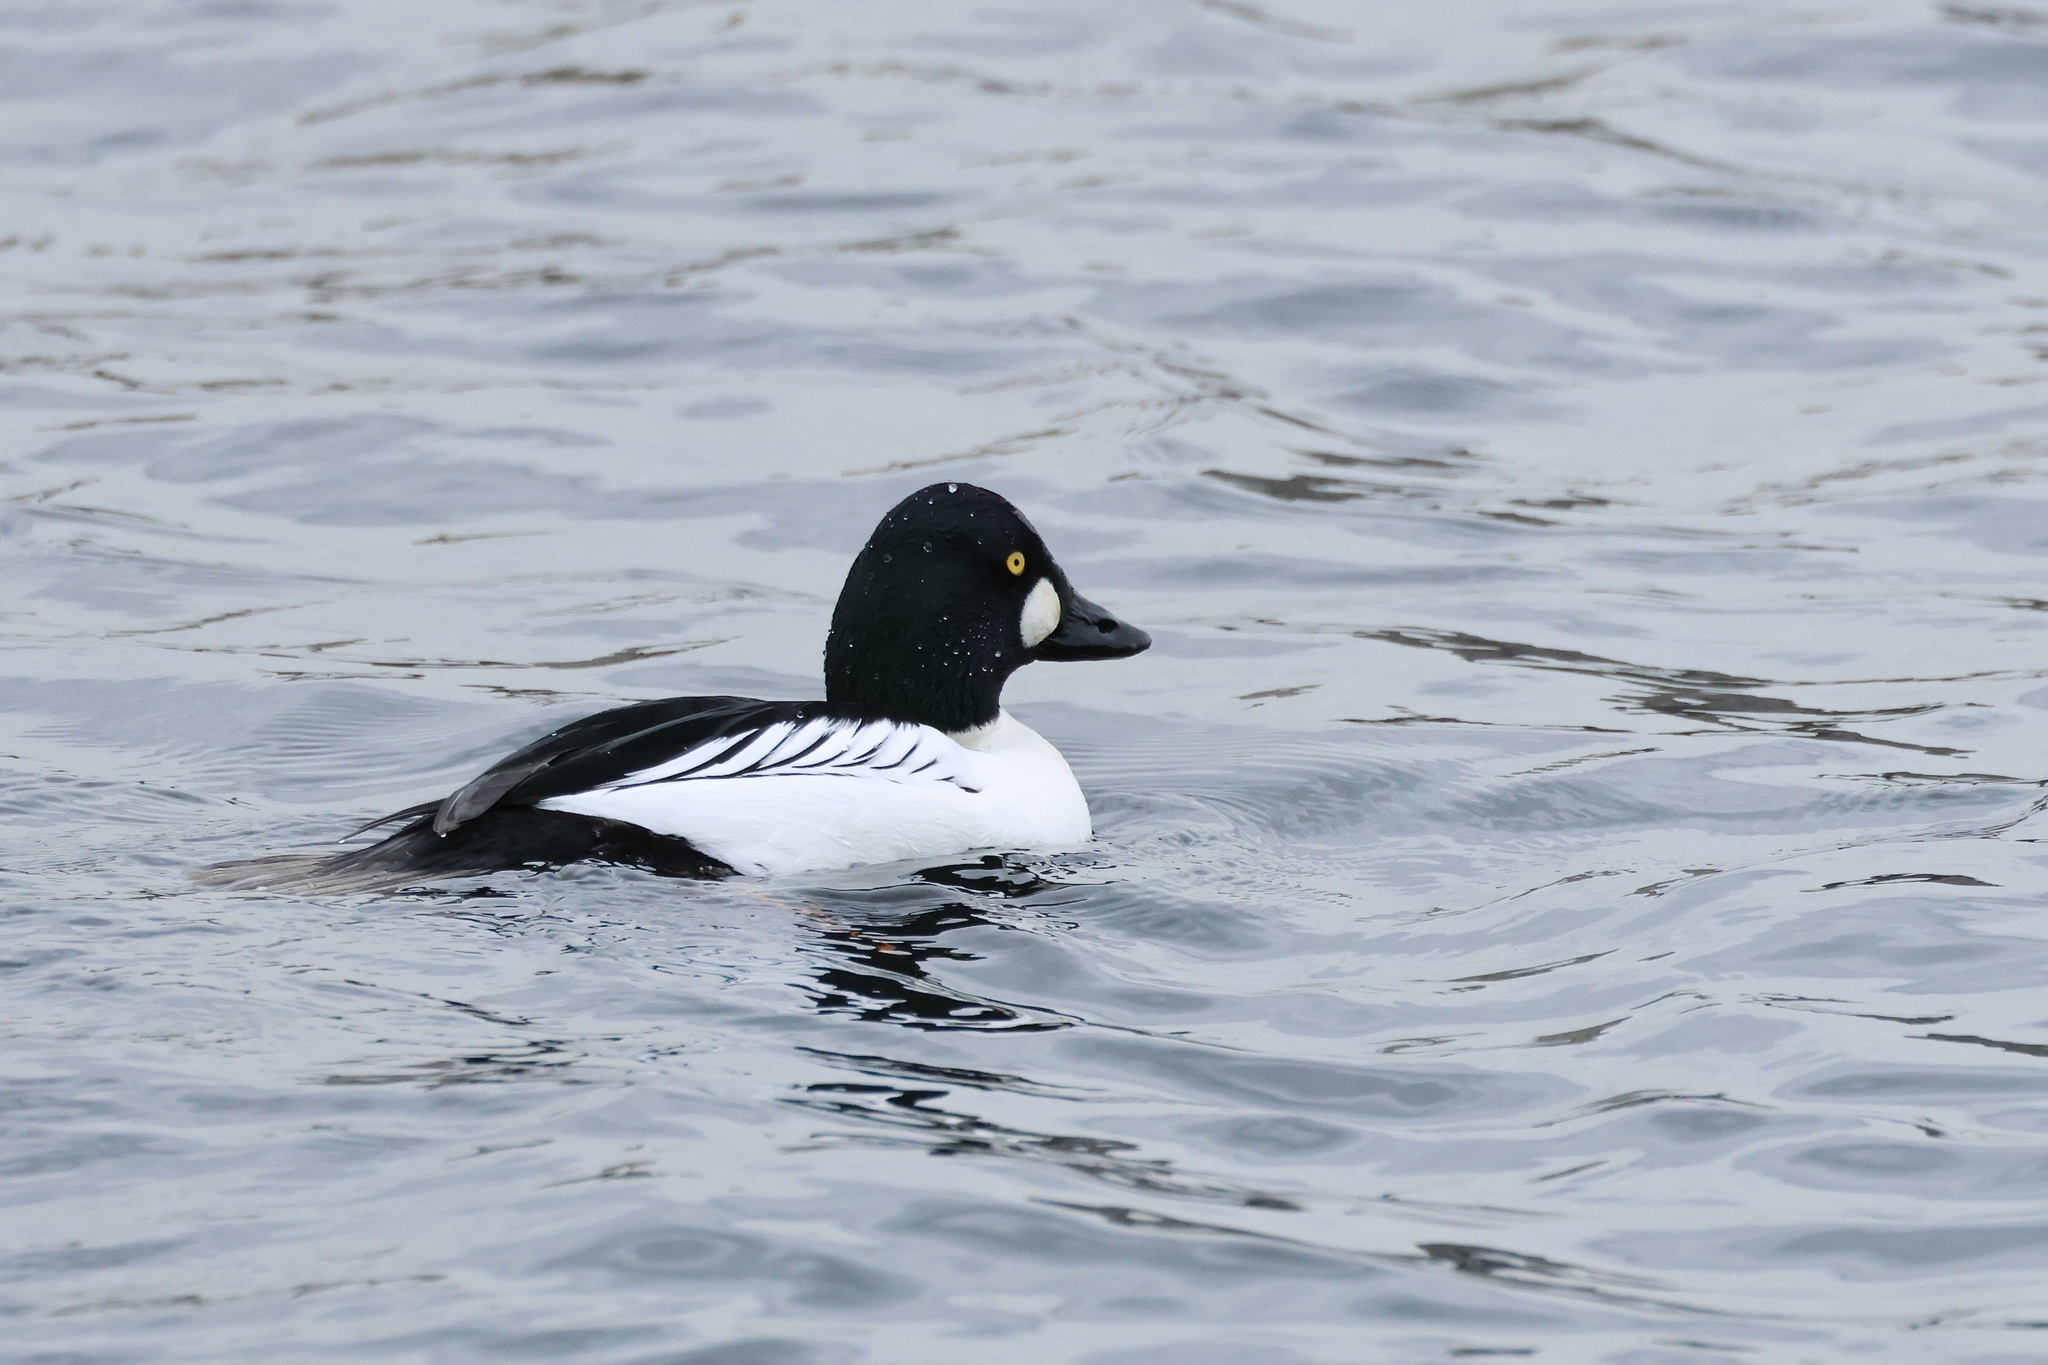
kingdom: Animalia
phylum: Chordata
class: Aves
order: Anseriformes
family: Anatidae
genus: Bucephala
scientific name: Bucephala clangula
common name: Common goldeneye
